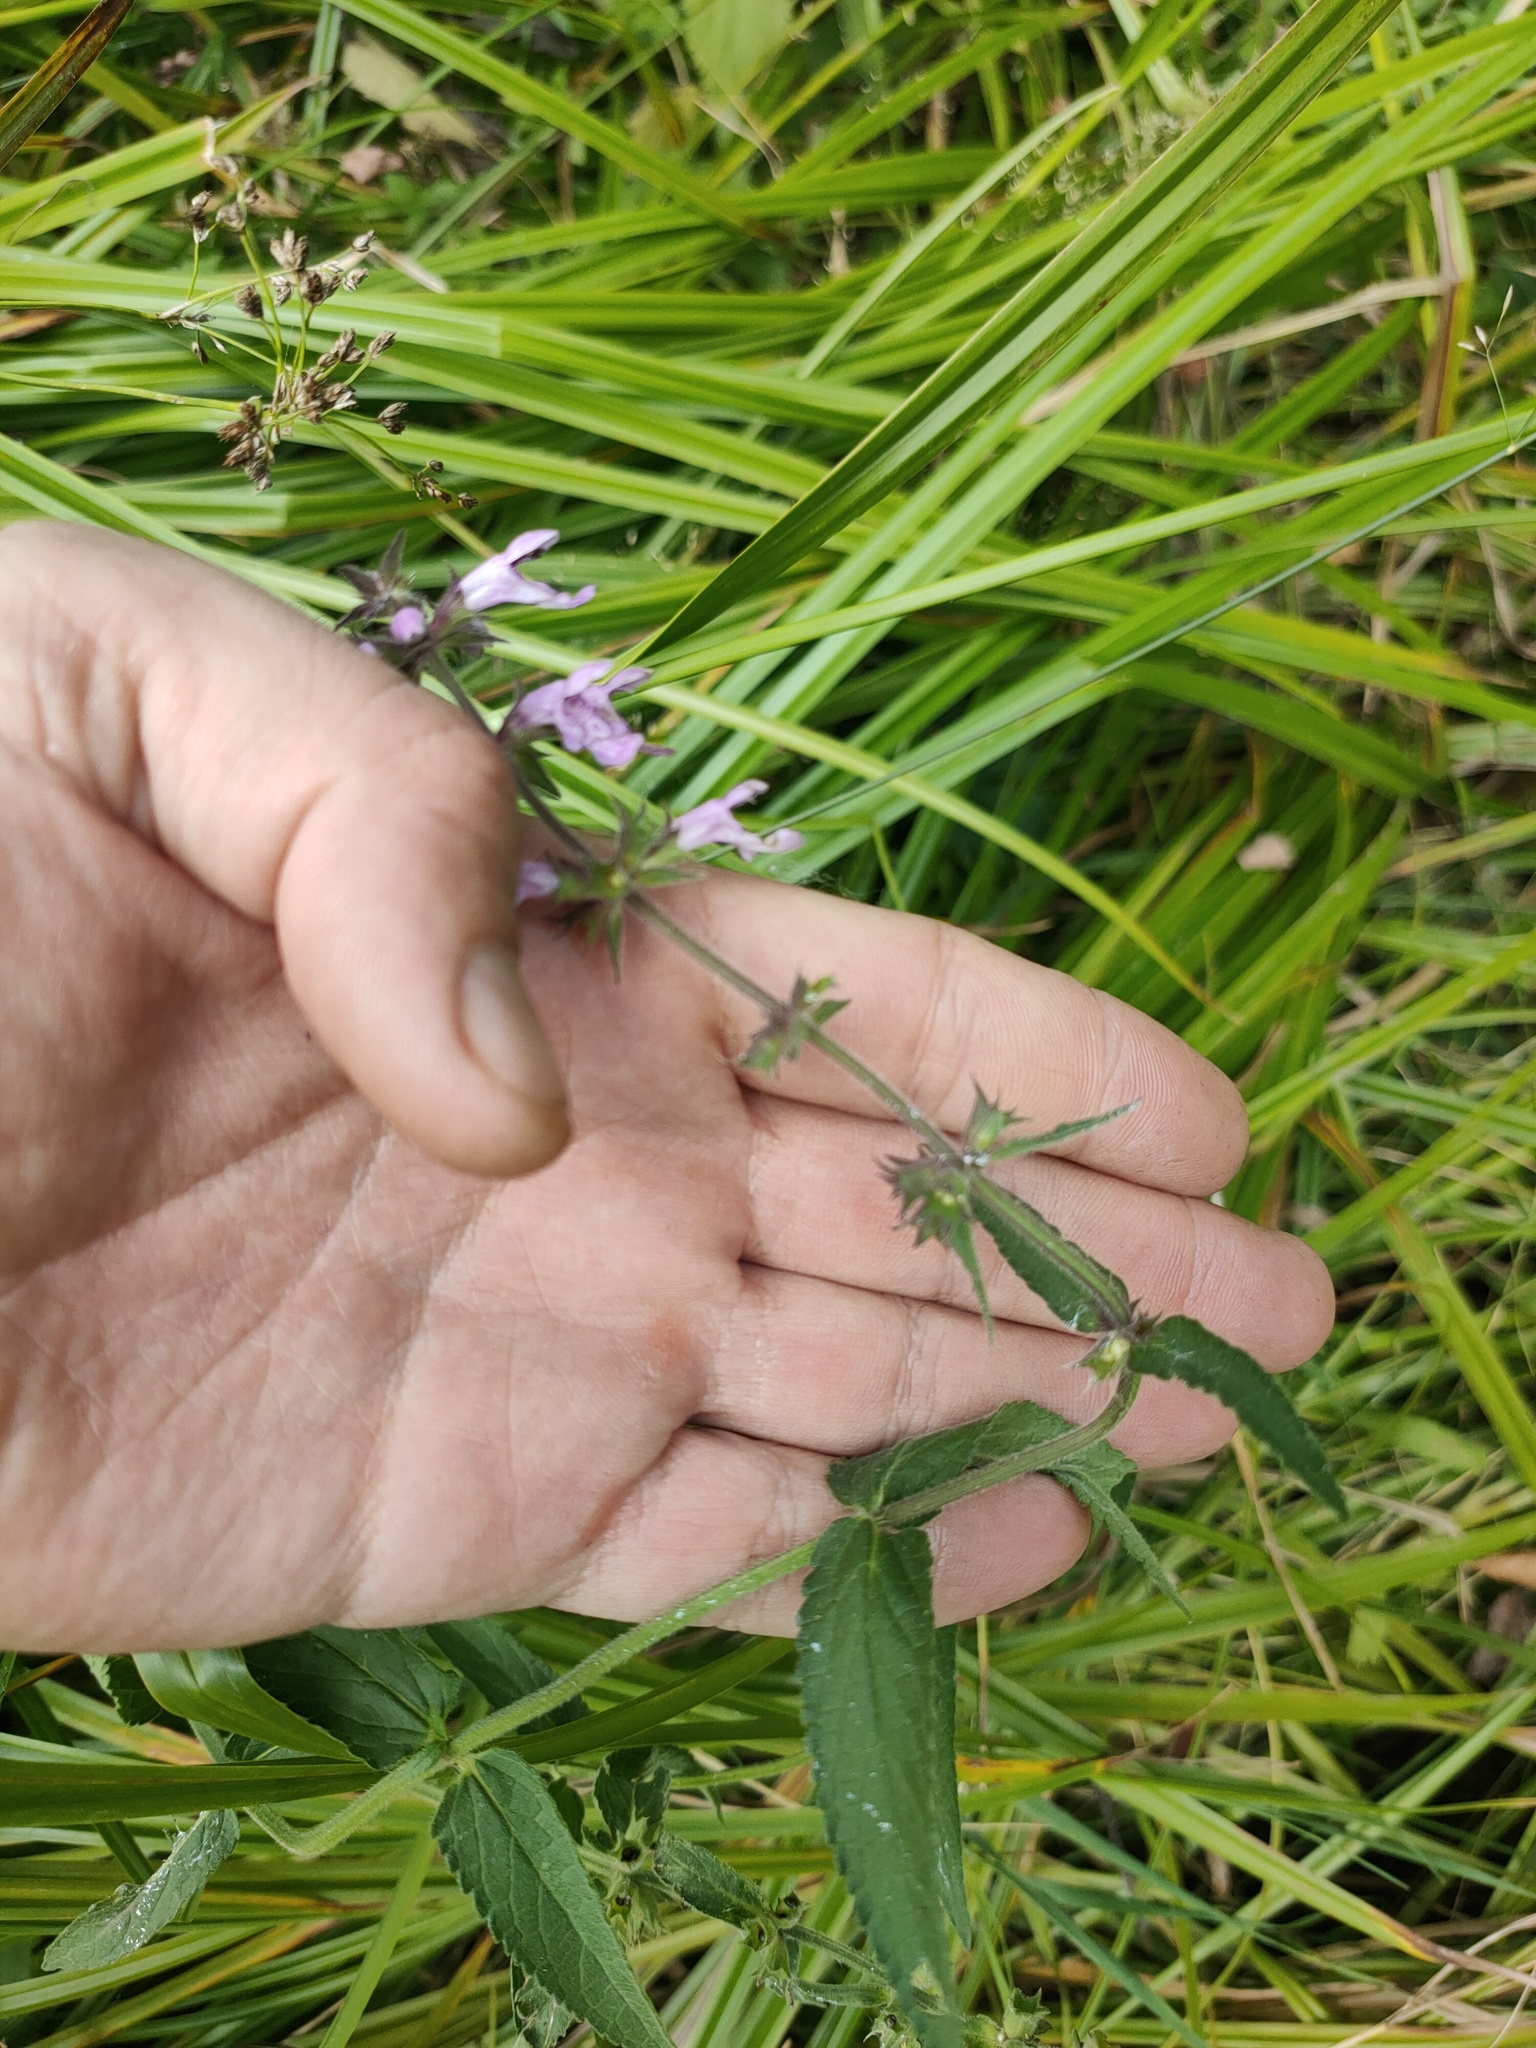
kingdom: Plantae
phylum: Tracheophyta
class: Magnoliopsida
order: Lamiales
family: Lamiaceae
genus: Stachys
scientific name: Stachys palustris
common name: Marsh woundwort
